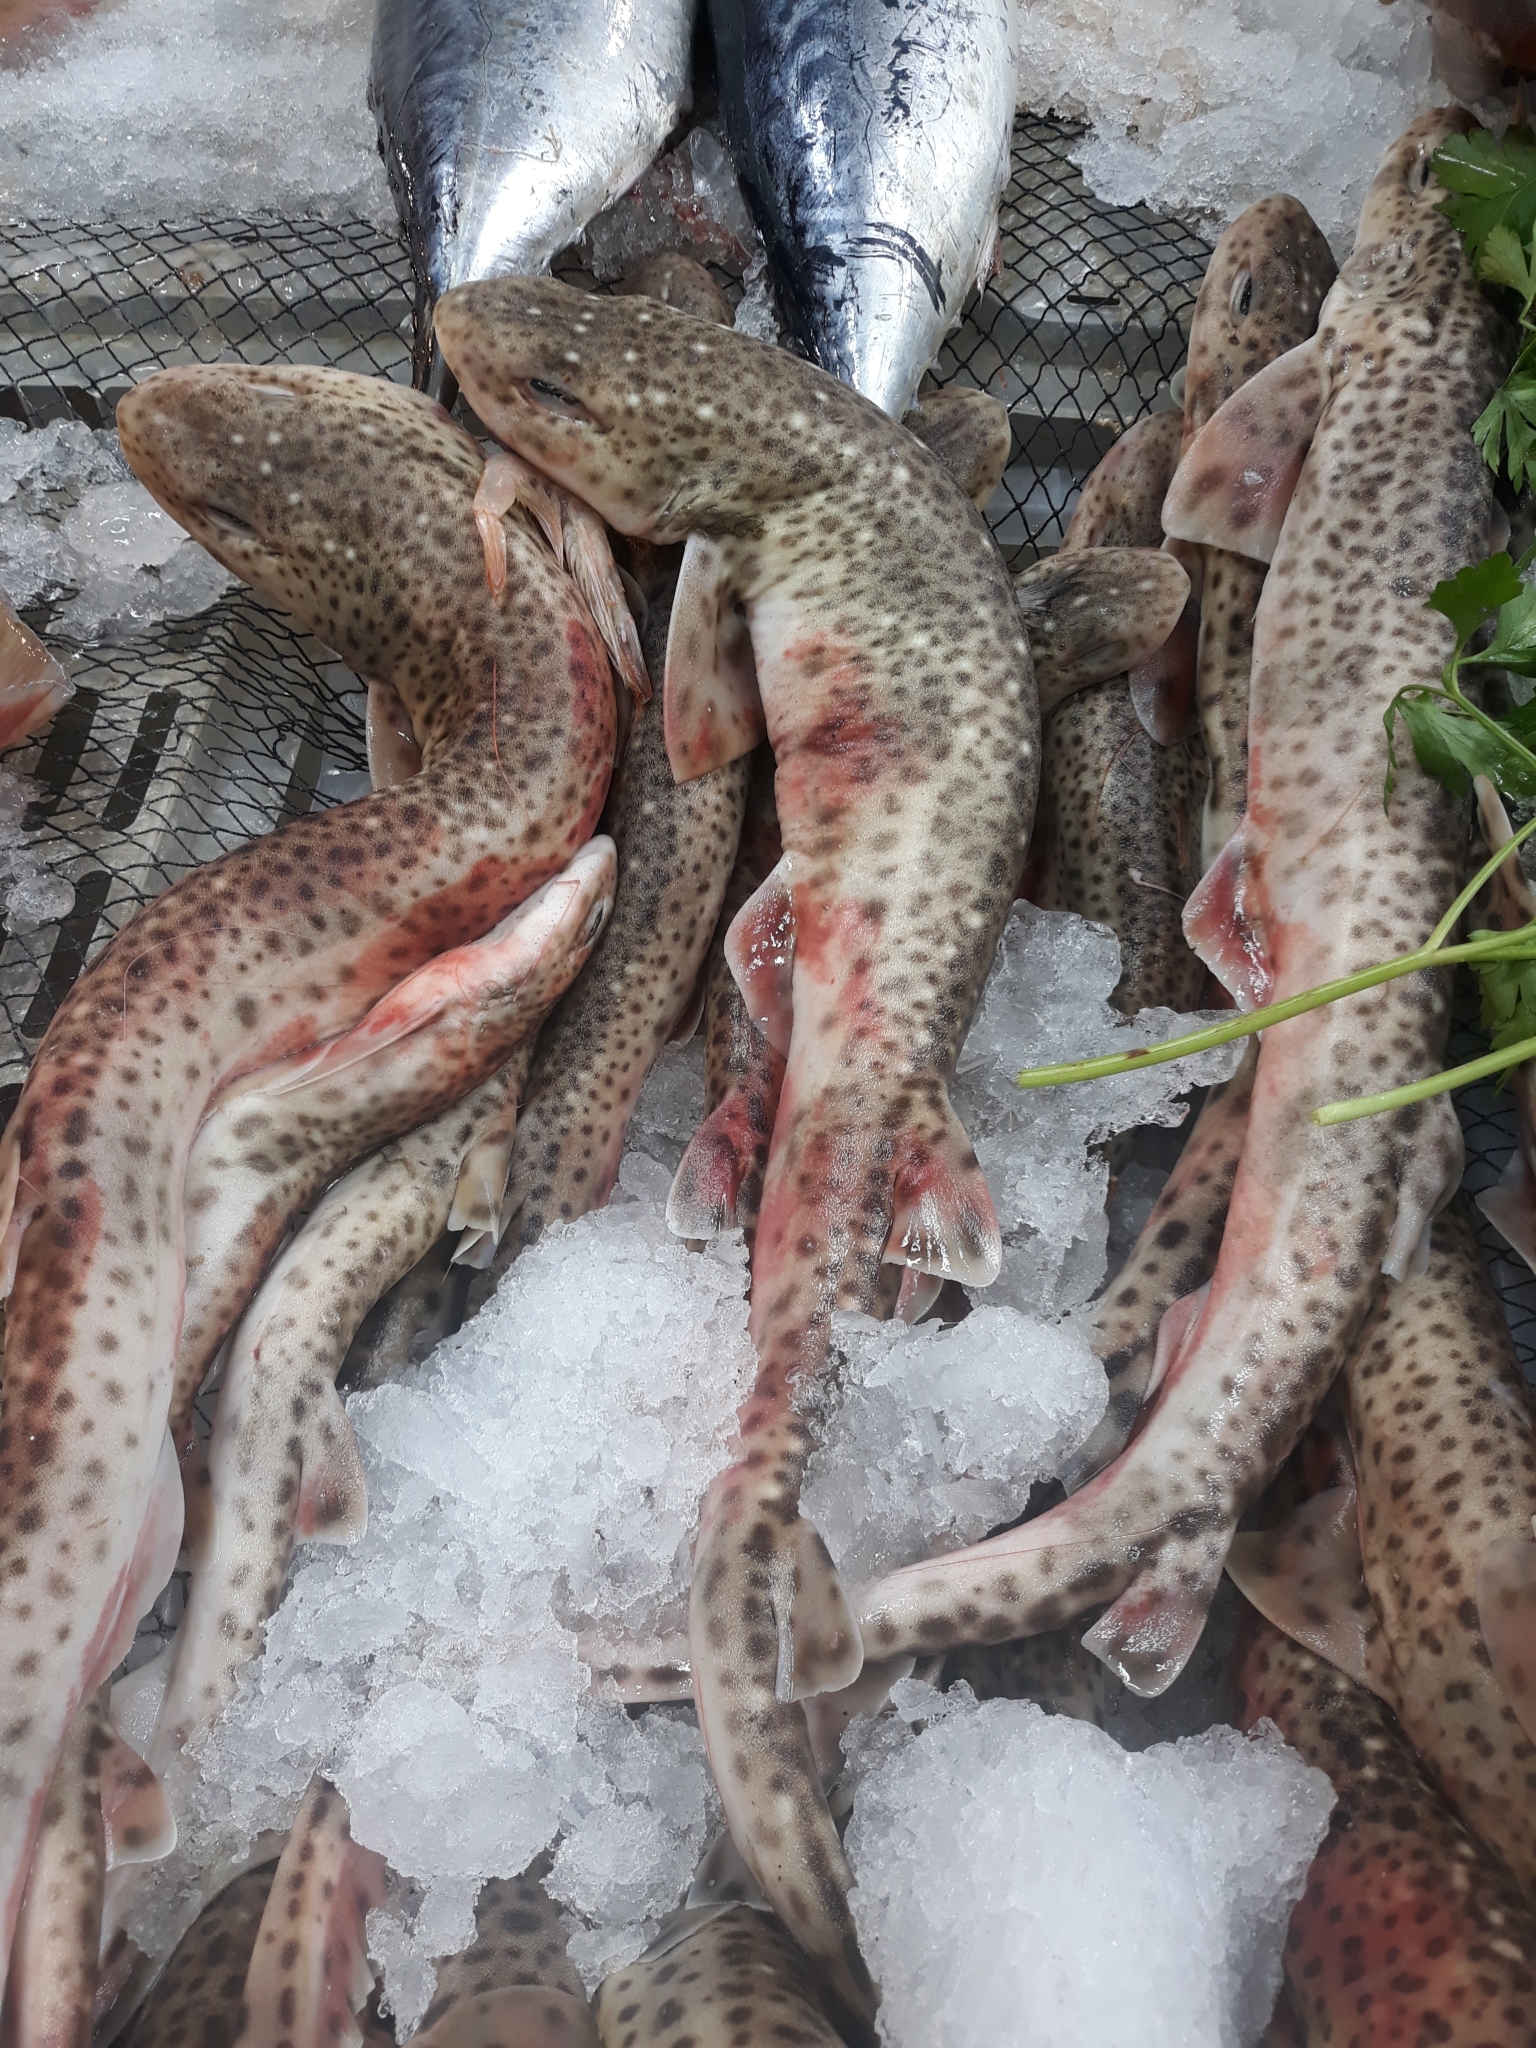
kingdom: Animalia
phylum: Chordata
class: Elasmobranchii
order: Carcharhiniformes
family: Scyliorhinidae
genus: Scyliorhinus
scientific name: Scyliorhinus canicula
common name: Lesser spotted dogfish
